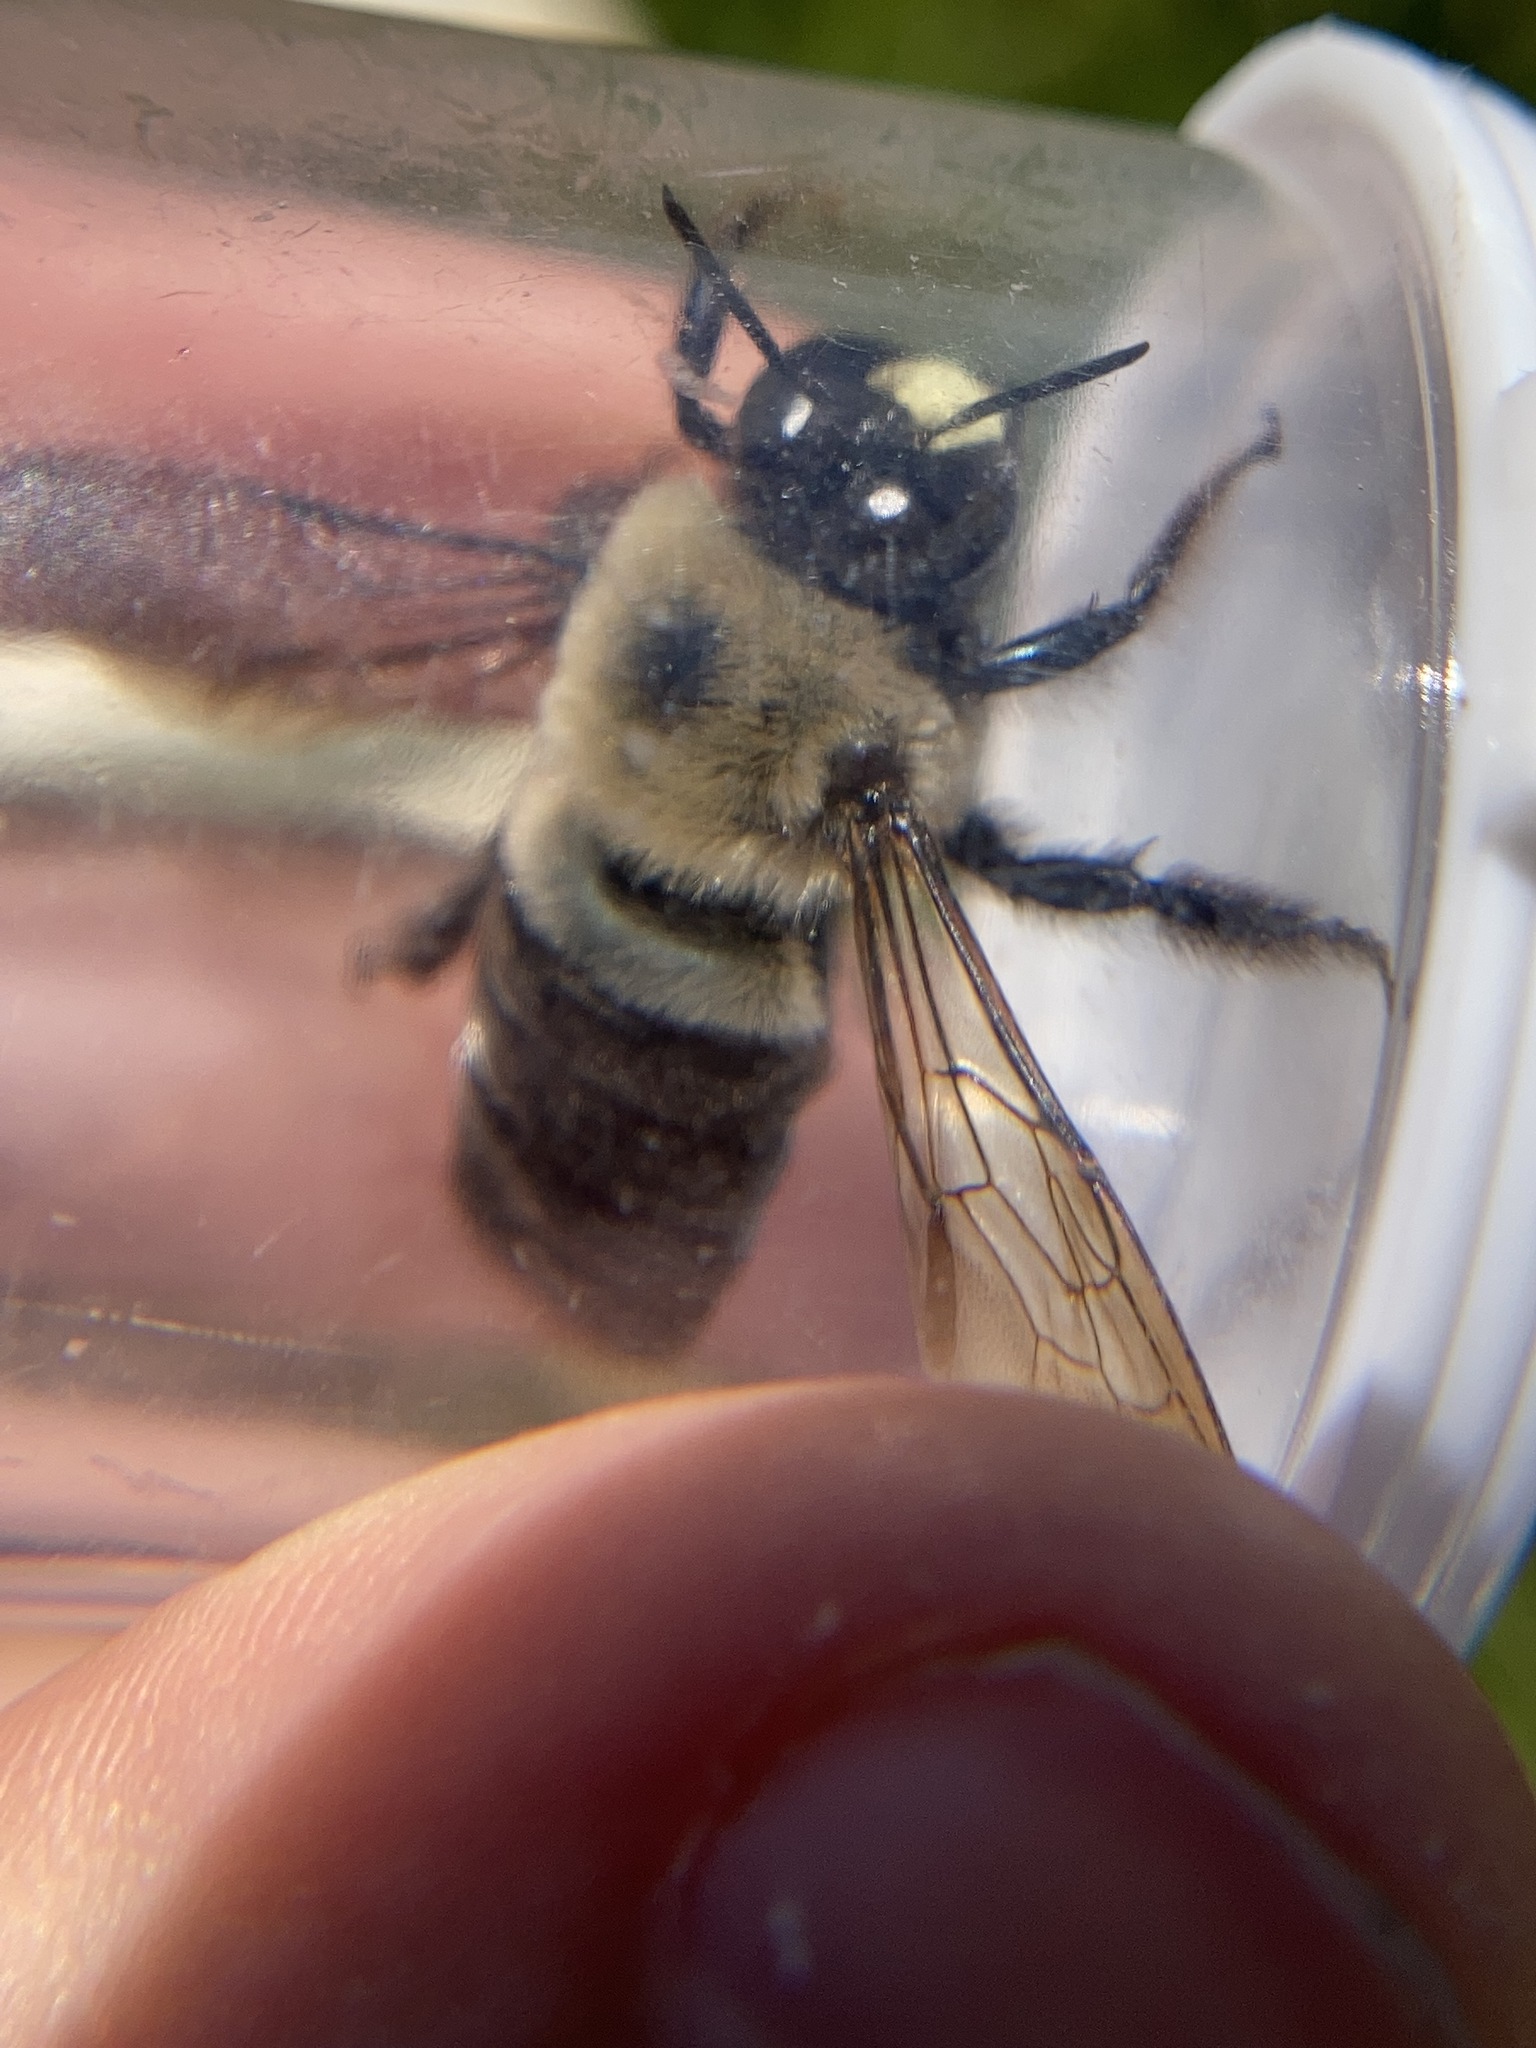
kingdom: Animalia
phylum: Arthropoda
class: Insecta
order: Hymenoptera
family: Apidae
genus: Xylocopa
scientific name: Xylocopa virginica
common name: Carpenter bee
